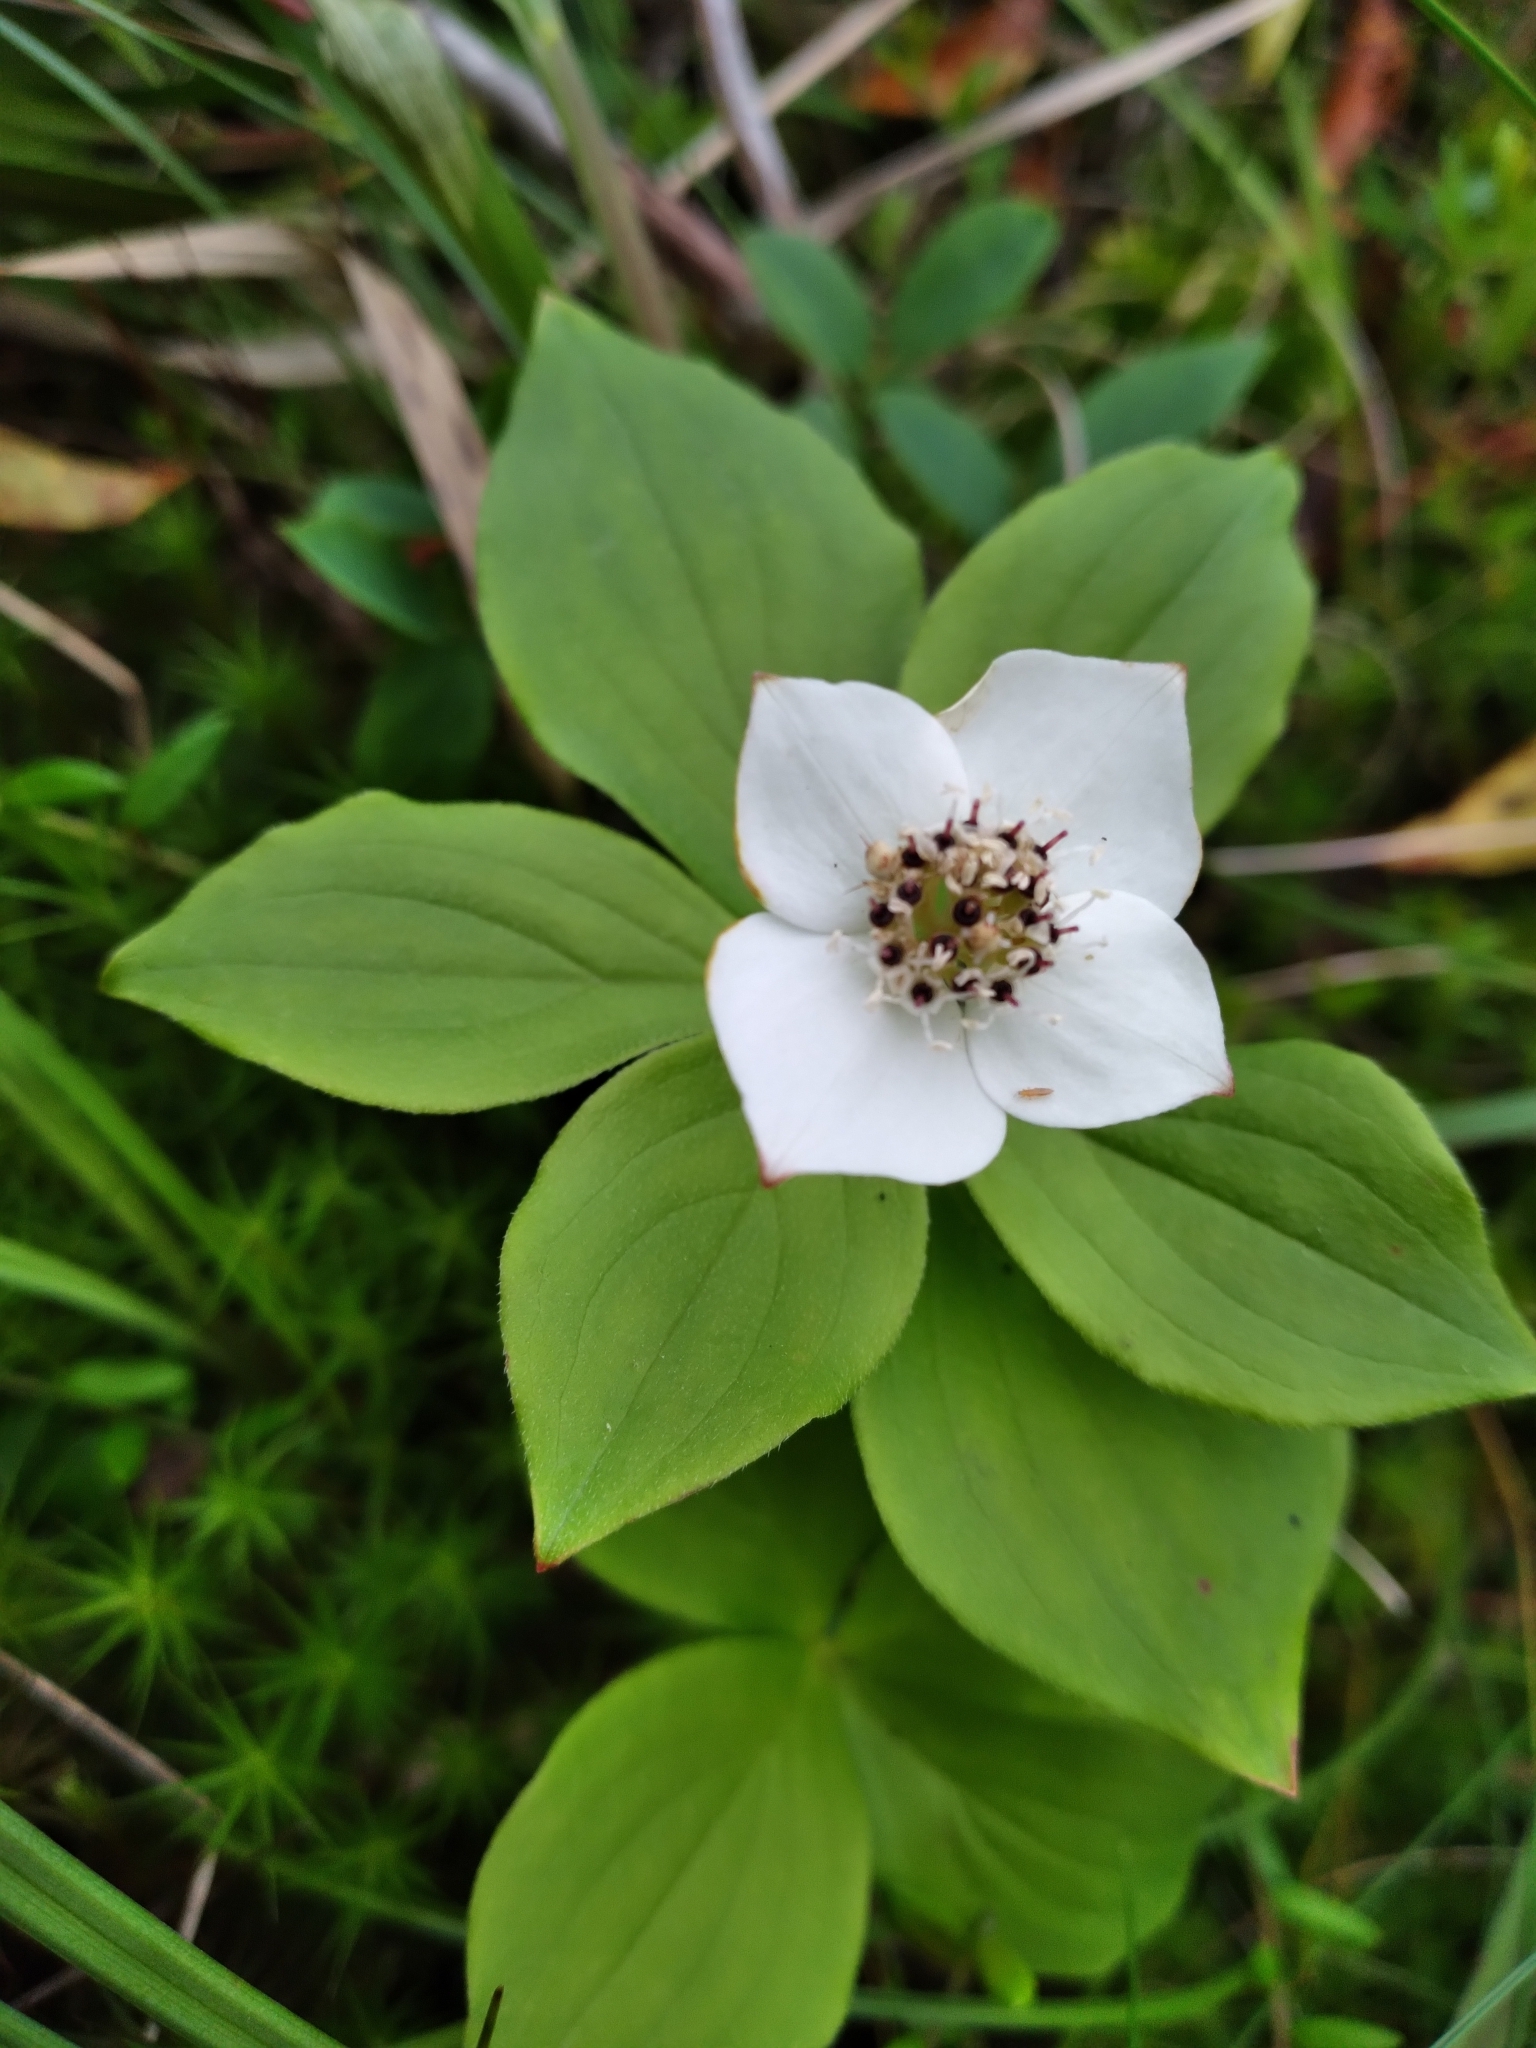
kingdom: Plantae
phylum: Tracheophyta
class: Magnoliopsida
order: Cornales
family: Cornaceae
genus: Cornus
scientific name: Cornus canadensis
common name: Creeping dogwood
